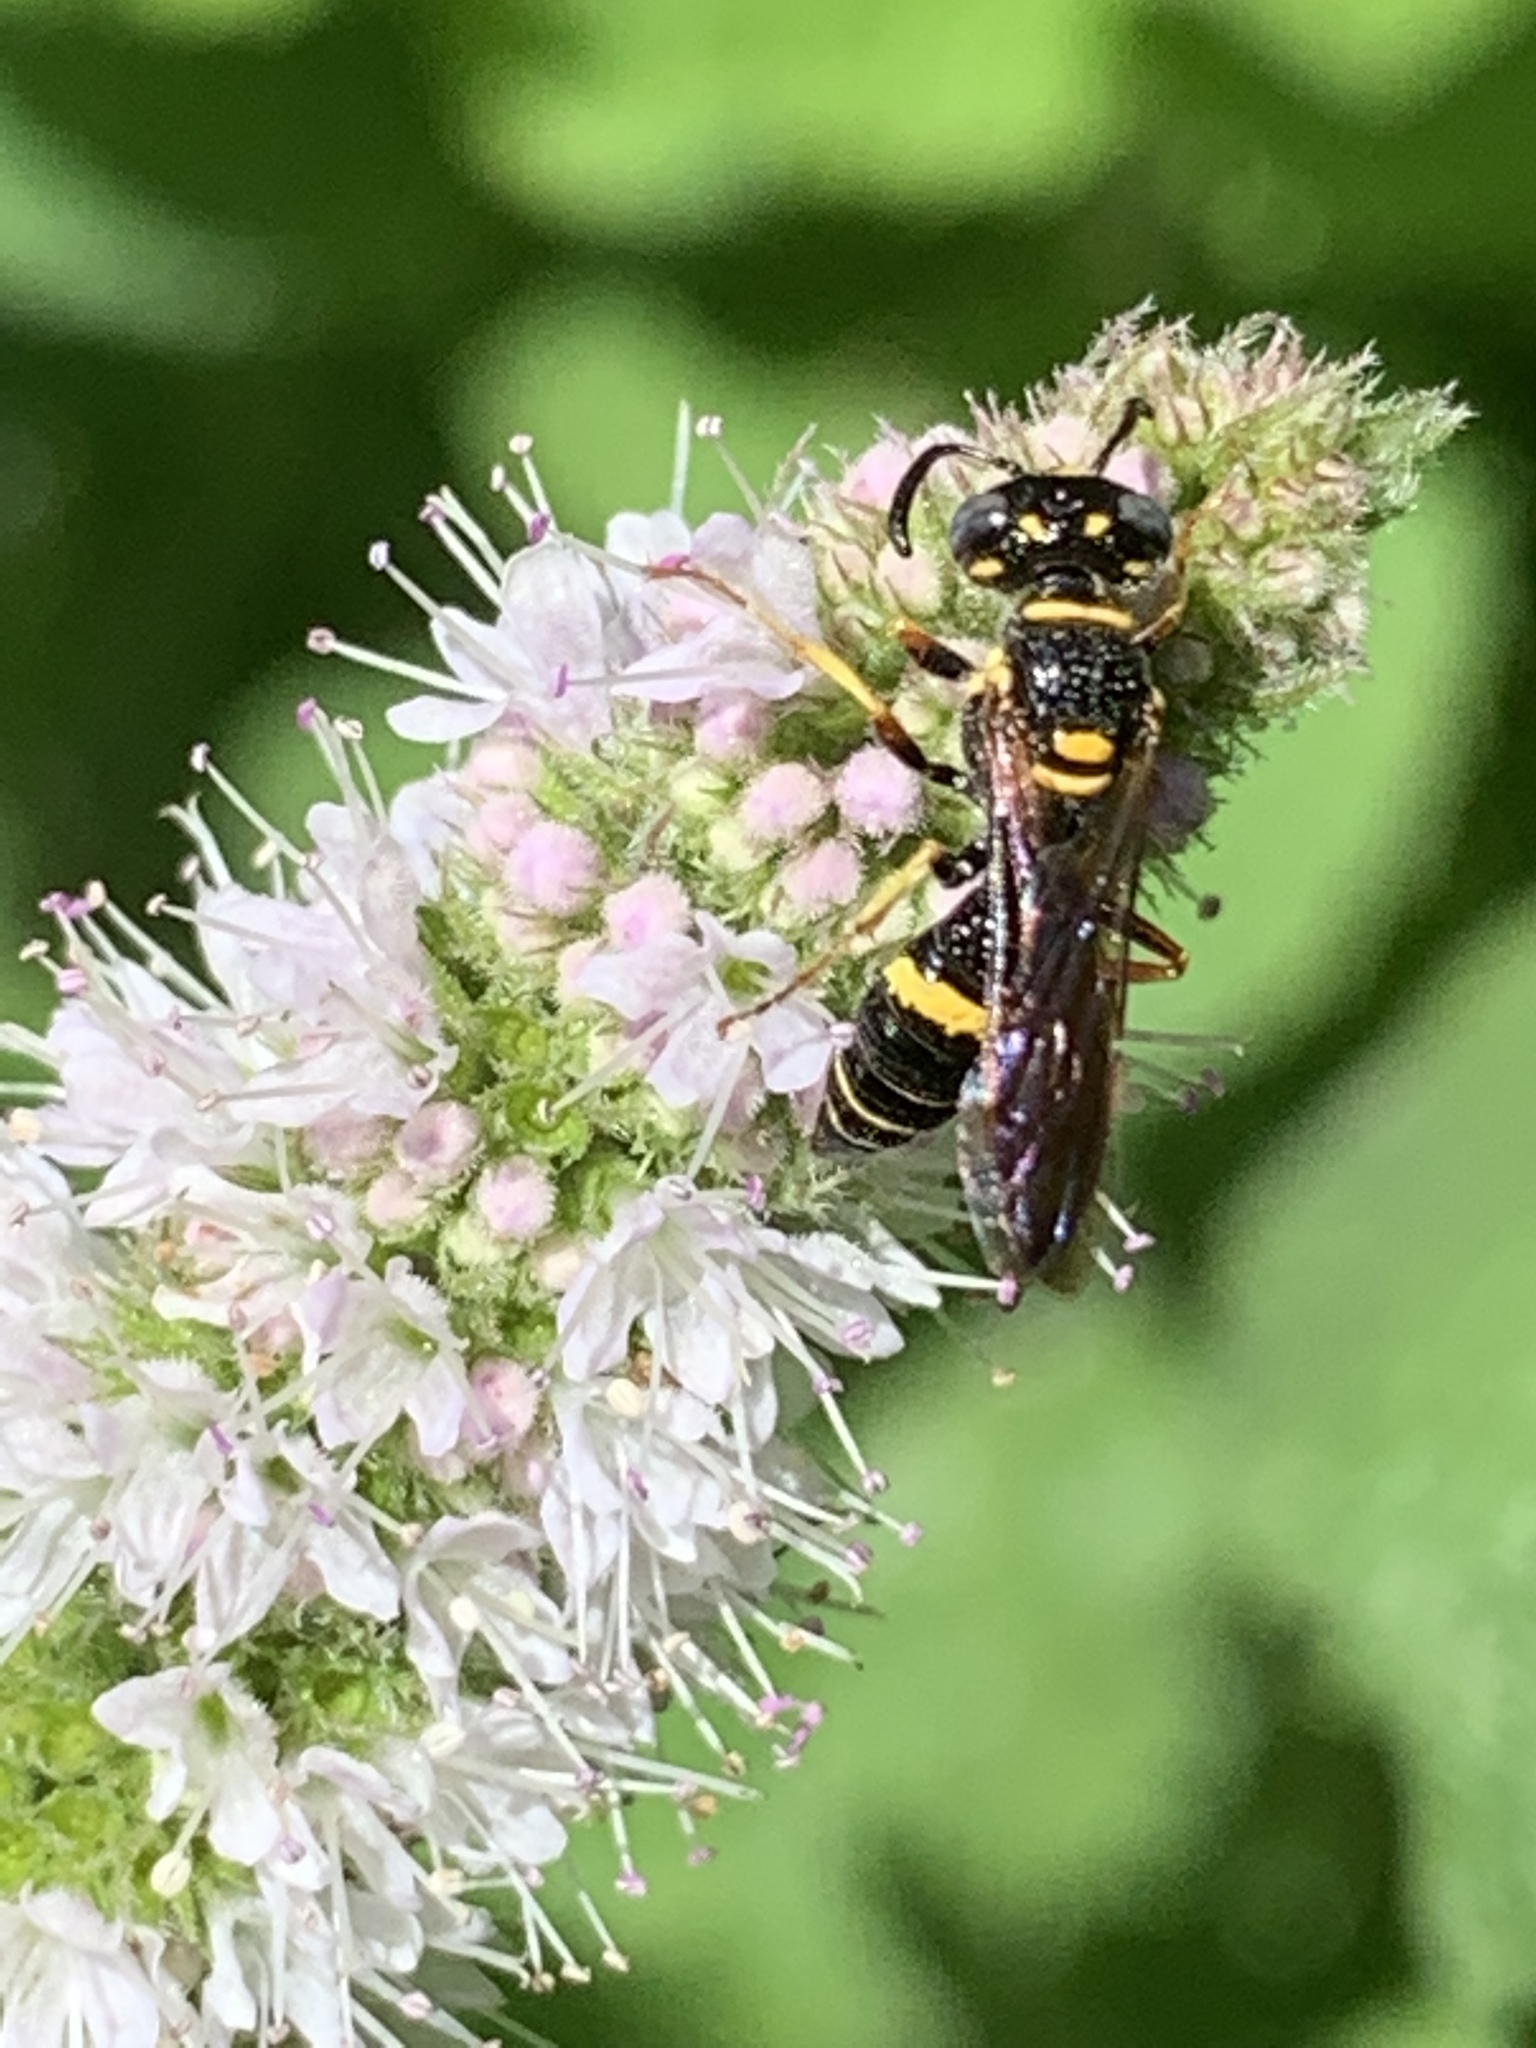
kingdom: Animalia
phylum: Arthropoda
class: Insecta
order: Hymenoptera
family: Crabronidae
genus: Philanthus
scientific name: Philanthus gibbosus
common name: Humped beewolf
